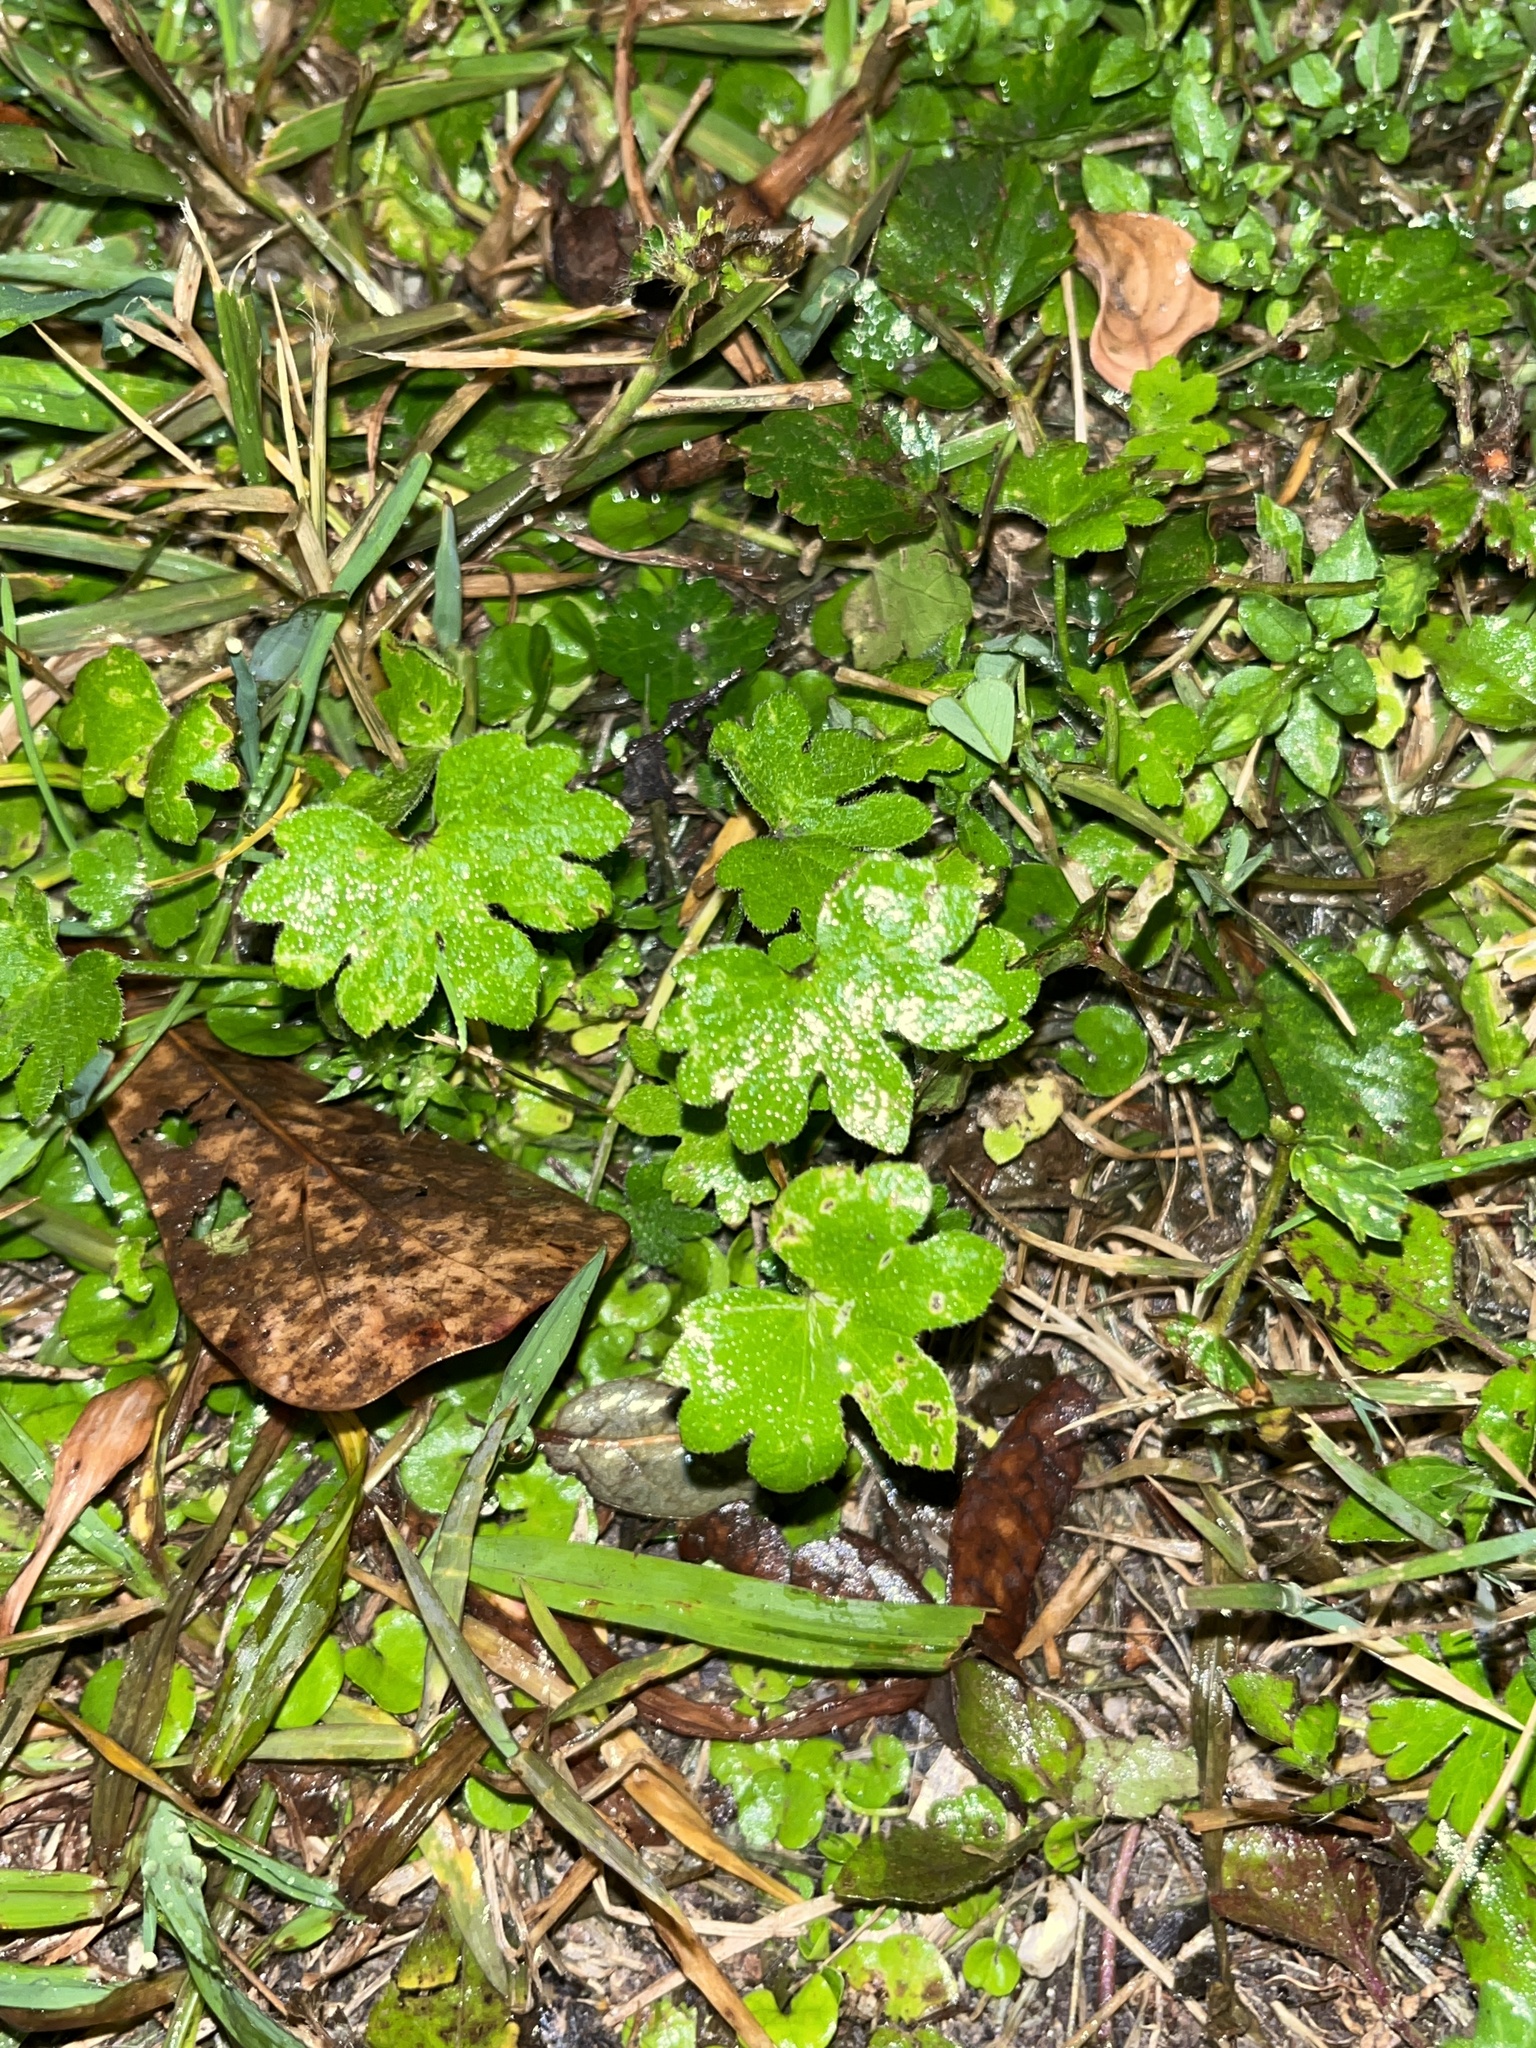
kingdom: Plantae
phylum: Tracheophyta
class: Magnoliopsida
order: Apiales
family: Apiaceae
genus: Bowlesia
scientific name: Bowlesia incana
